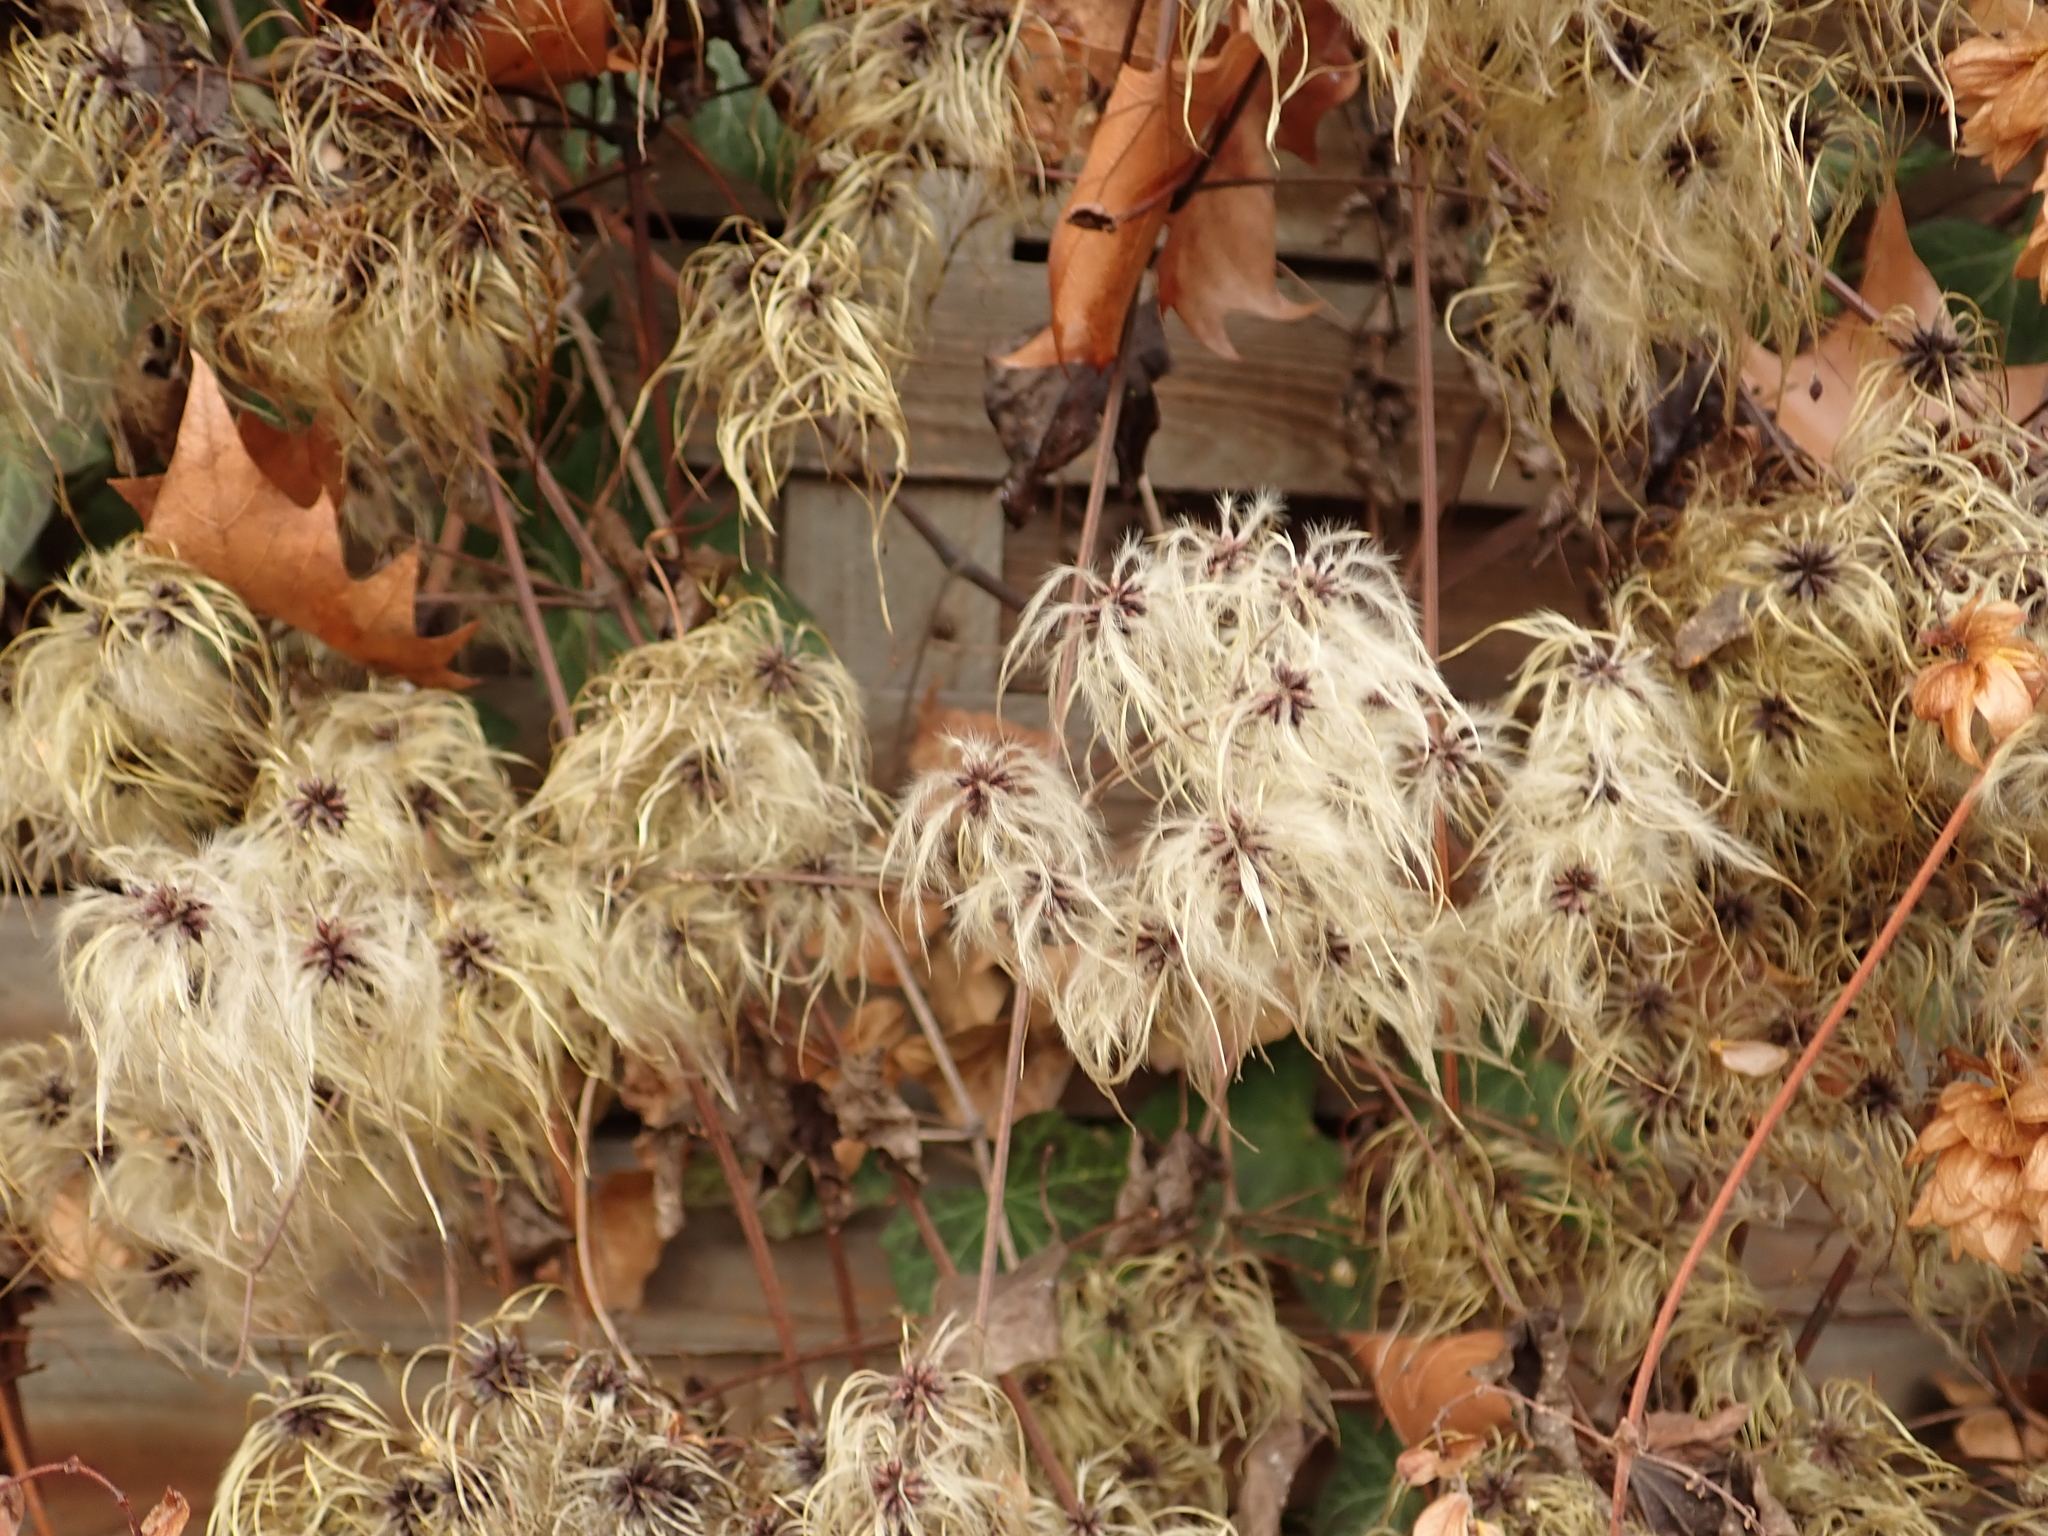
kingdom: Plantae
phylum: Tracheophyta
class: Magnoliopsida
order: Ranunculales
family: Ranunculaceae
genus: Clematis
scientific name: Clematis vitalba
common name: Evergreen clematis
